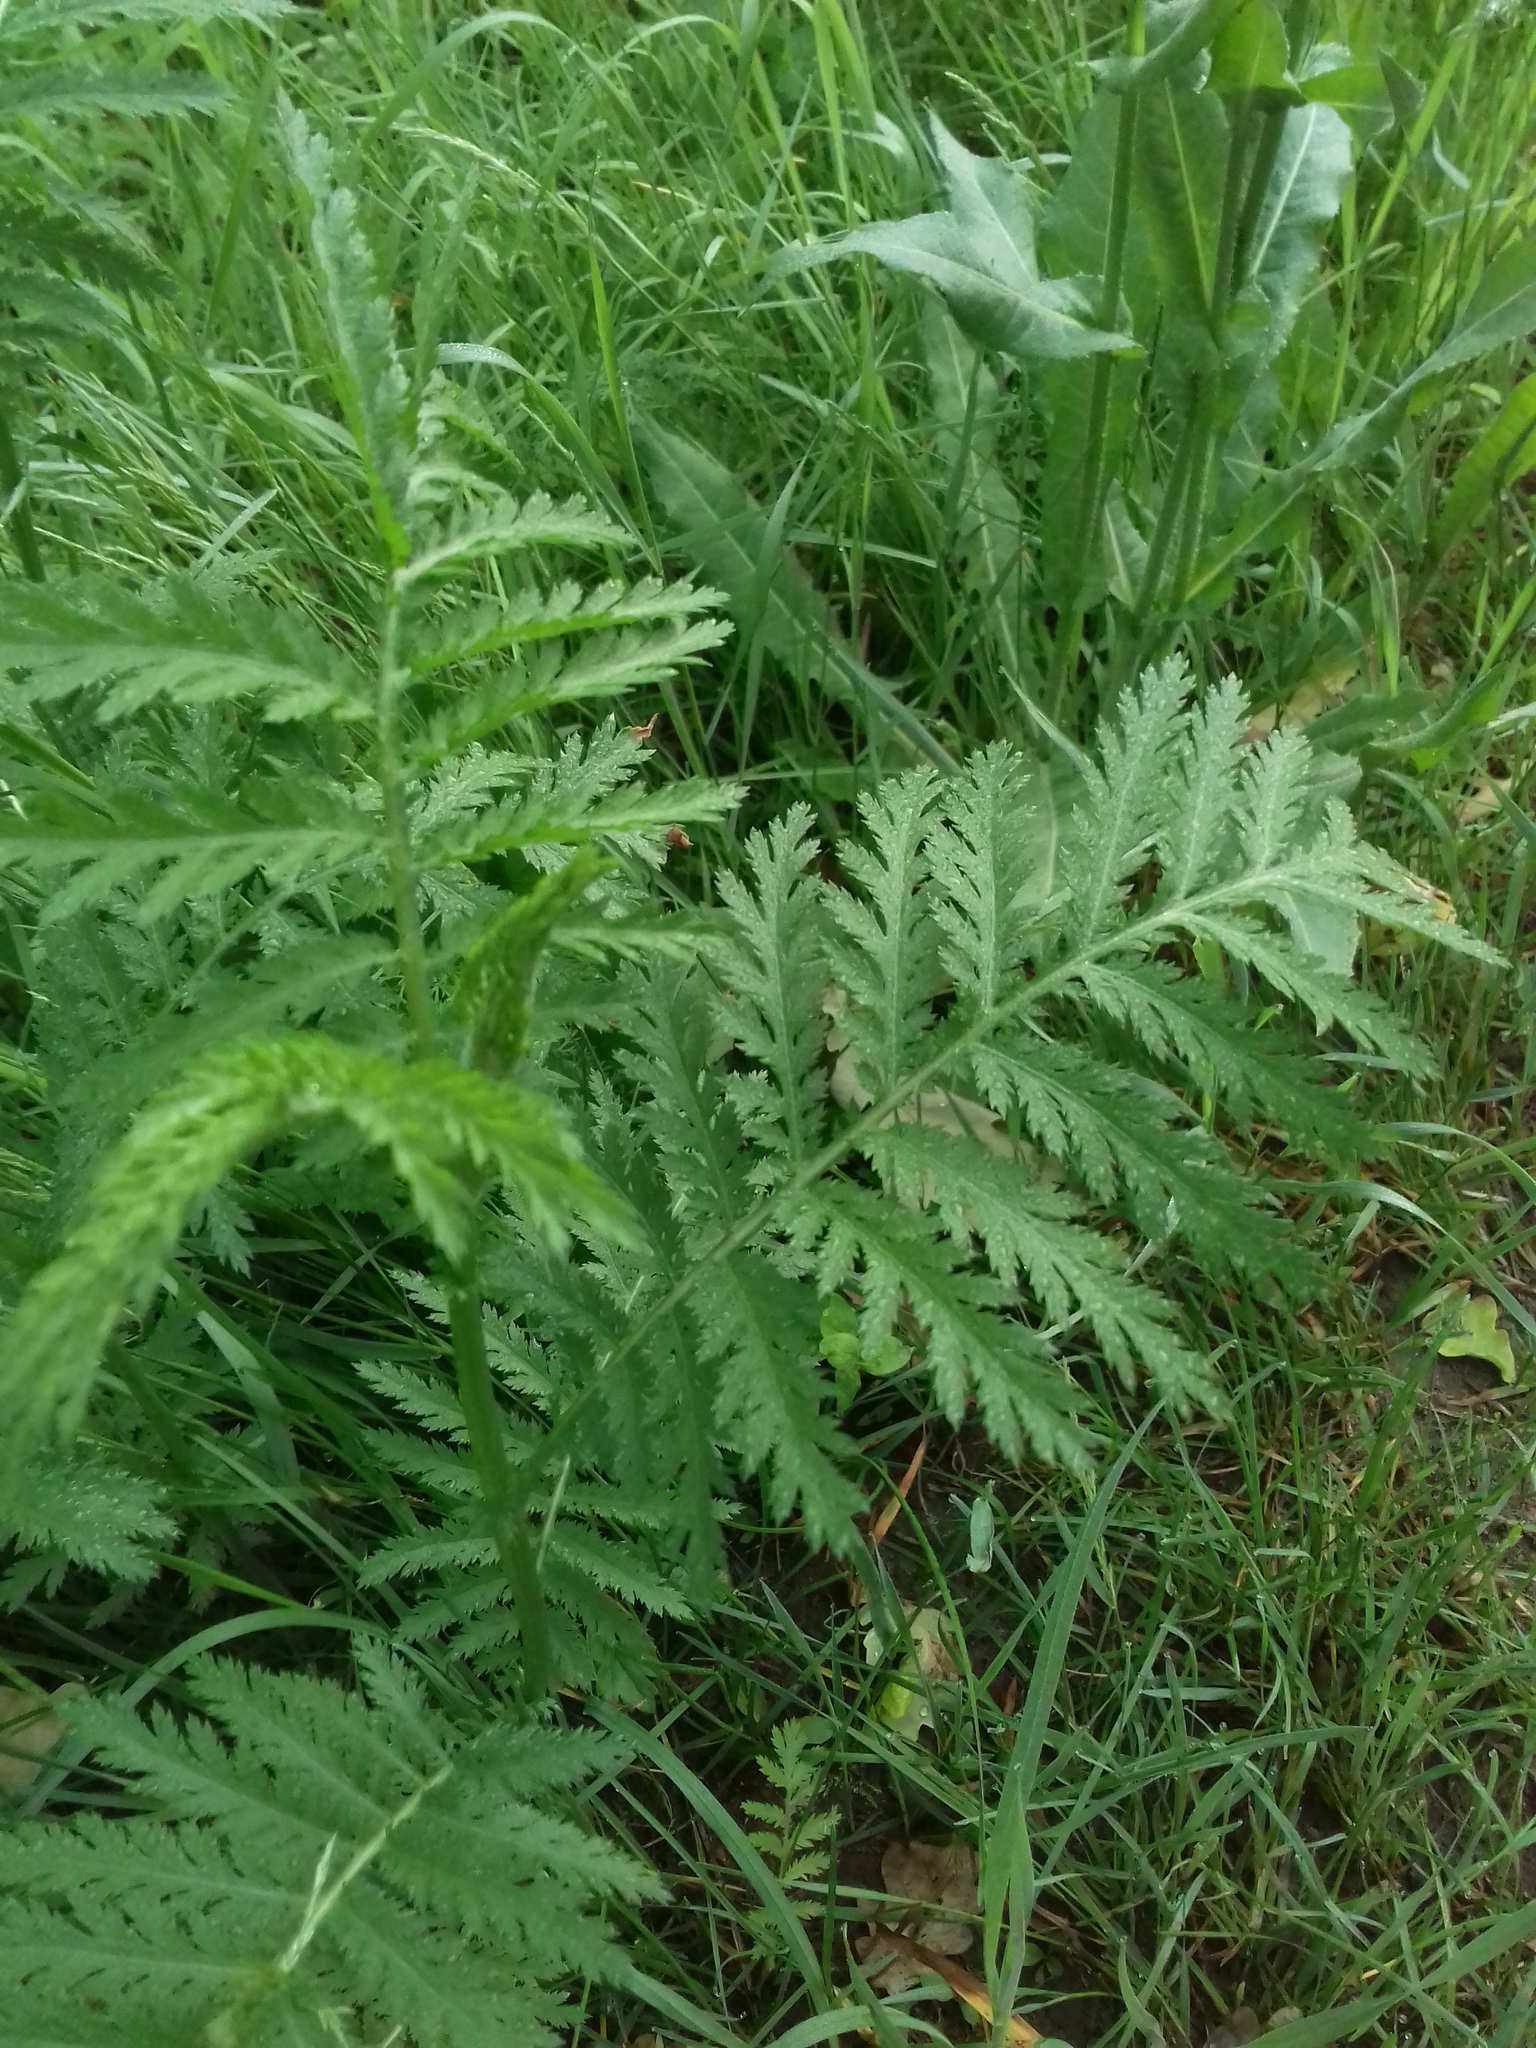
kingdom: Plantae
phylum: Tracheophyta
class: Magnoliopsida
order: Asterales
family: Asteraceae
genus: Tanacetum
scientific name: Tanacetum vulgare
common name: Common tansy
